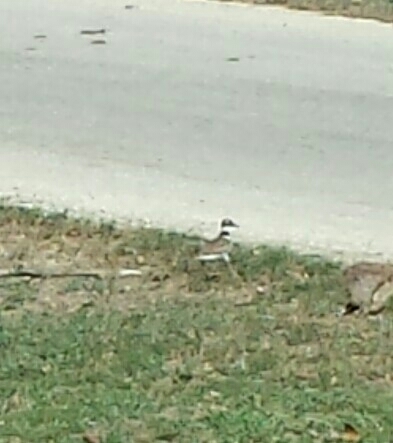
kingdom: Animalia
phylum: Chordata
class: Aves
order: Charadriiformes
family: Charadriidae
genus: Charadrius
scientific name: Charadrius vociferus
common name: Killdeer
